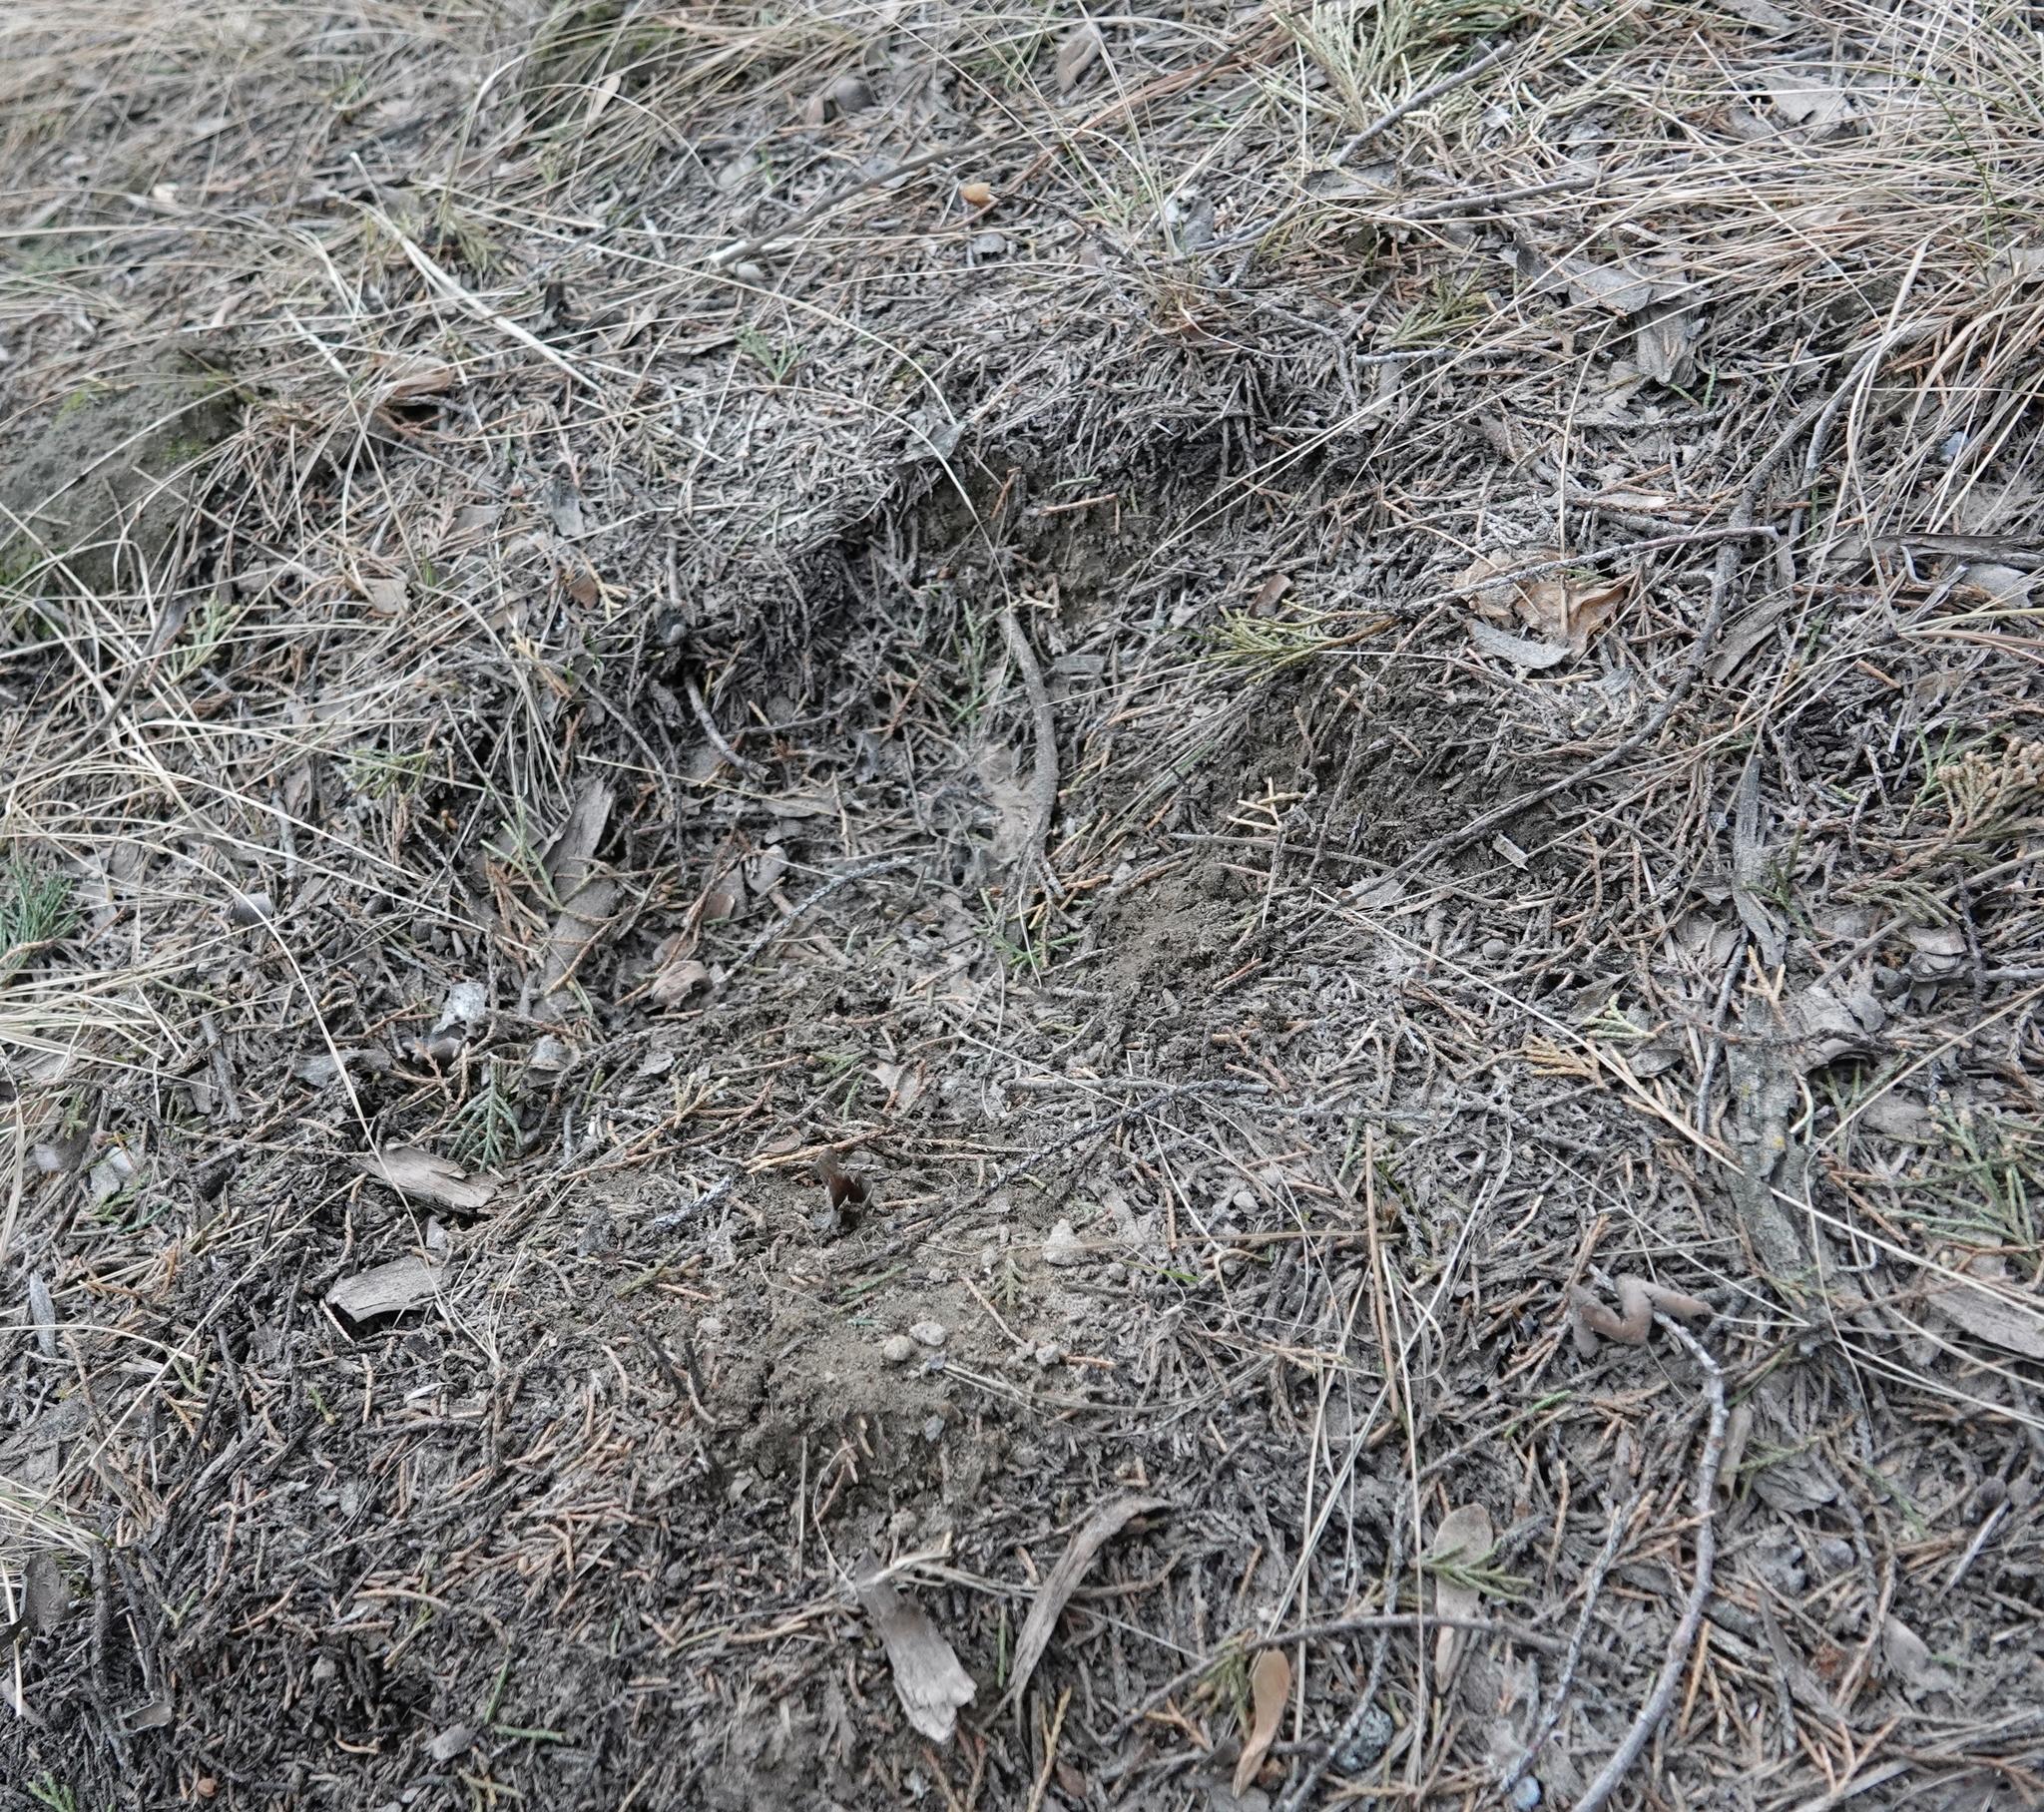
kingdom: Animalia
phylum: Chordata
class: Mammalia
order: Carnivora
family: Felidae
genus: Puma
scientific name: Puma concolor
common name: Puma
